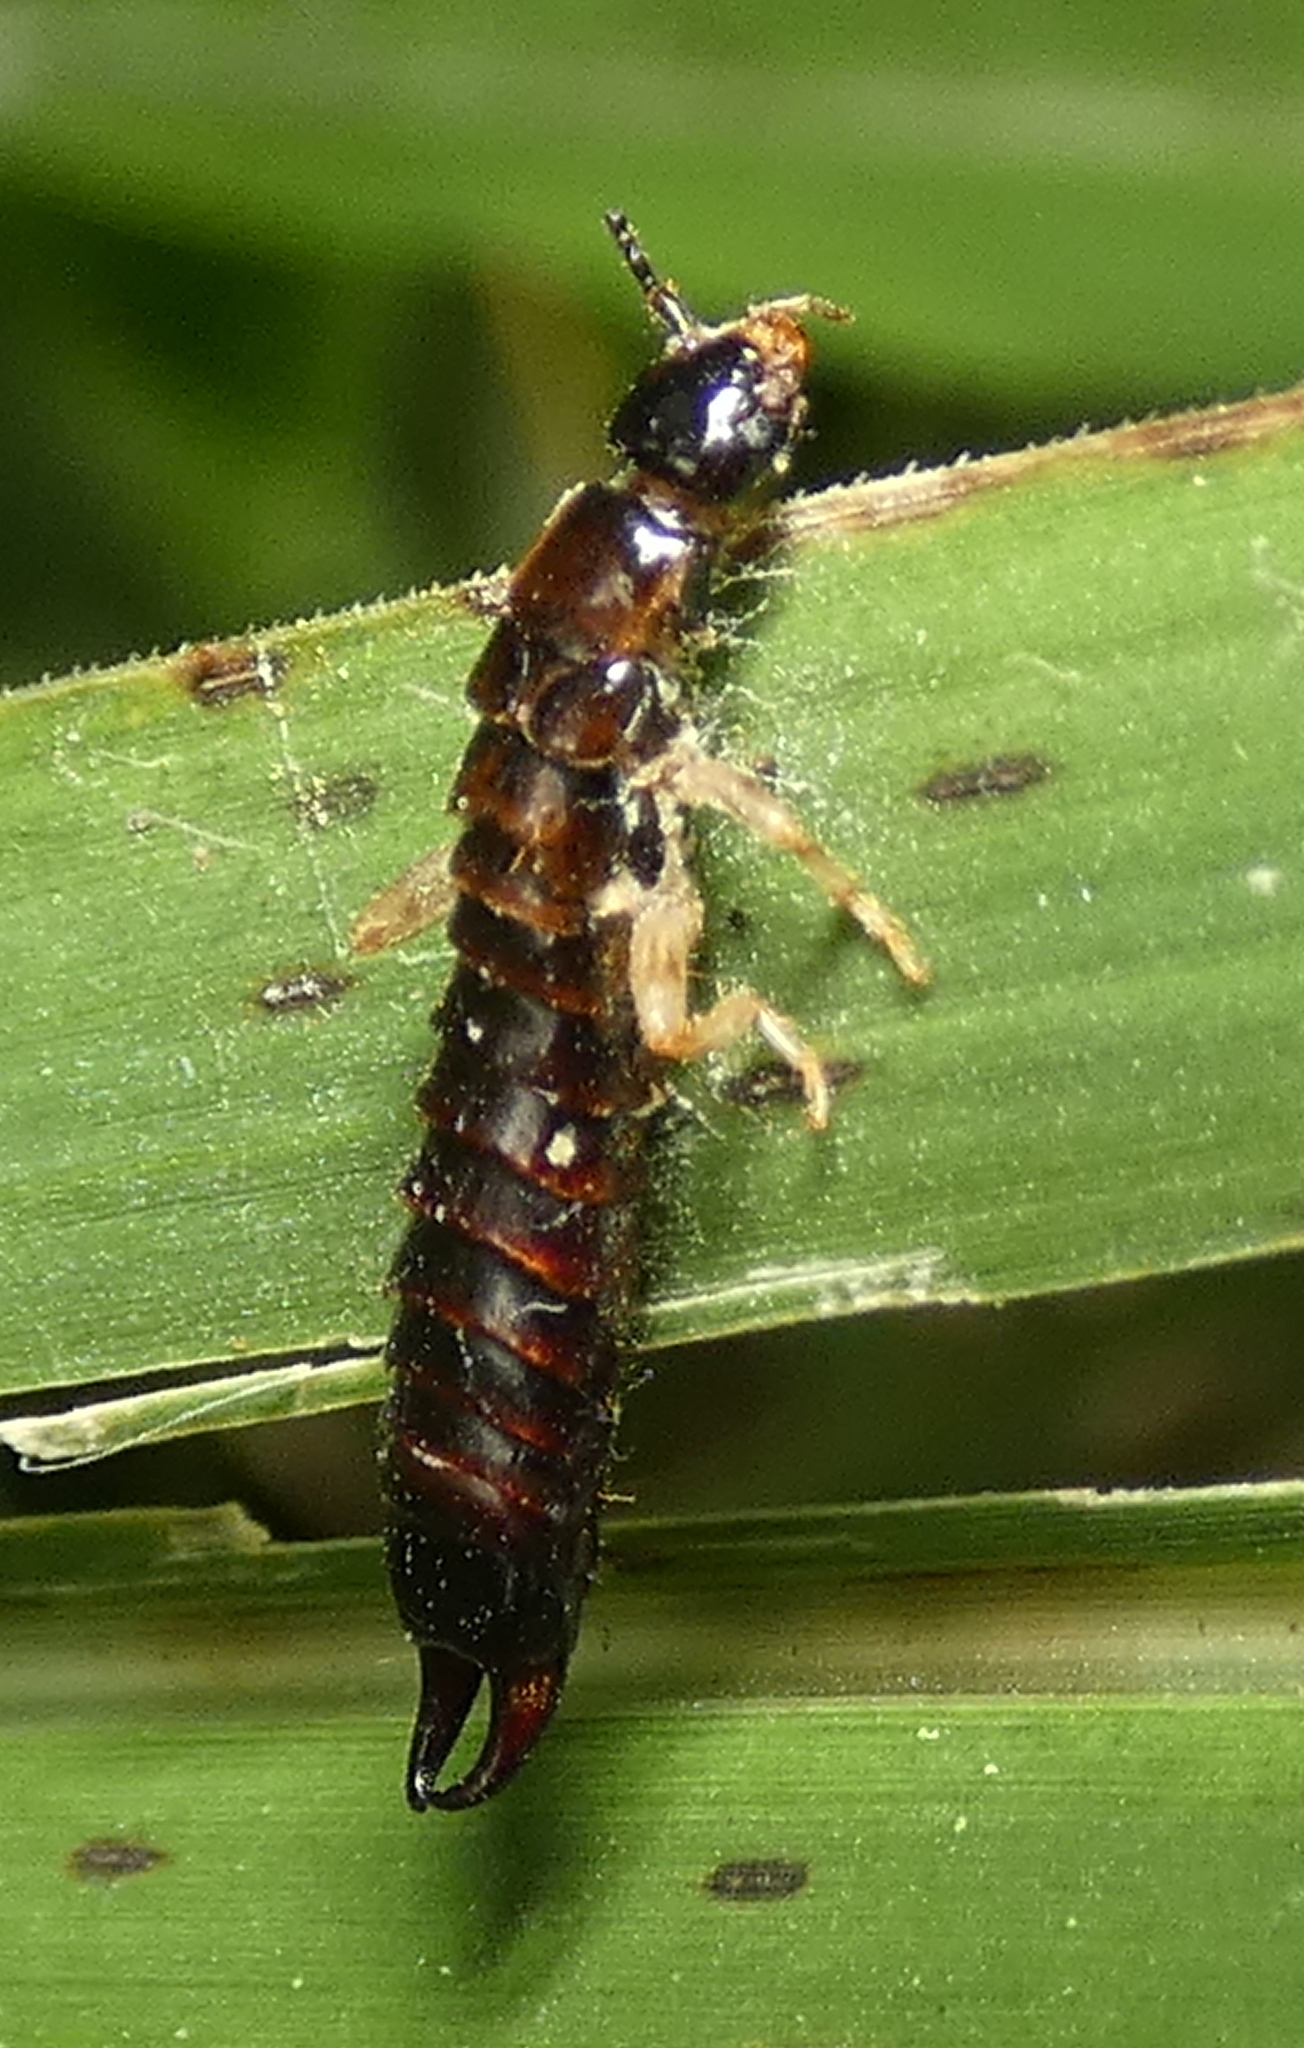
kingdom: Animalia
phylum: Arthropoda
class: Insecta
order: Dermaptera
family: Anisolabididae
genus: Euborellia
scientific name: Euborellia janeirensis
